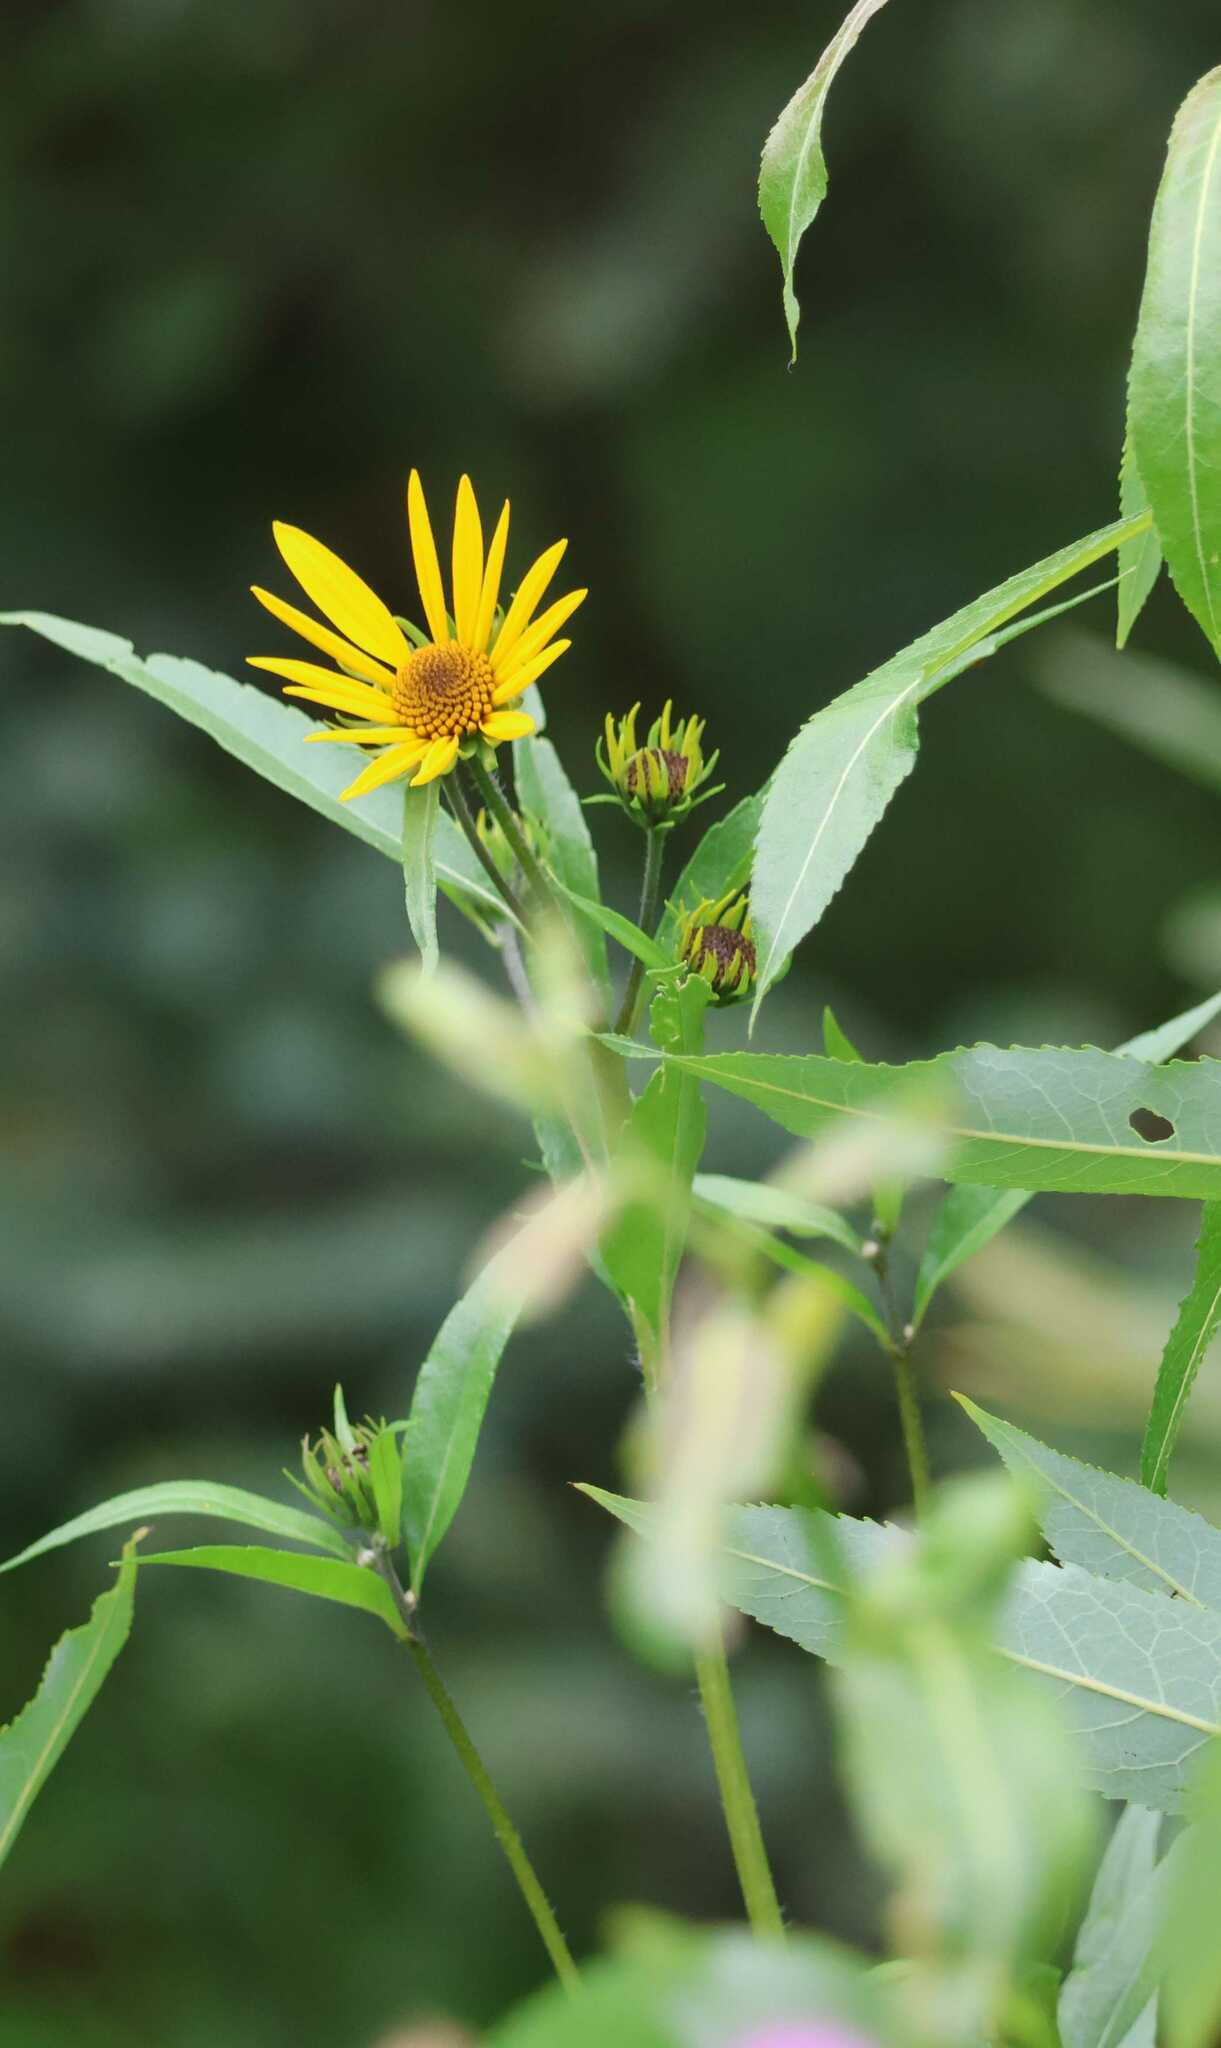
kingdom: Plantae
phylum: Tracheophyta
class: Magnoliopsida
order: Asterales
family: Asteraceae
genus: Helianthus
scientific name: Helianthus nuttallii
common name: Nuttall's sunflower
